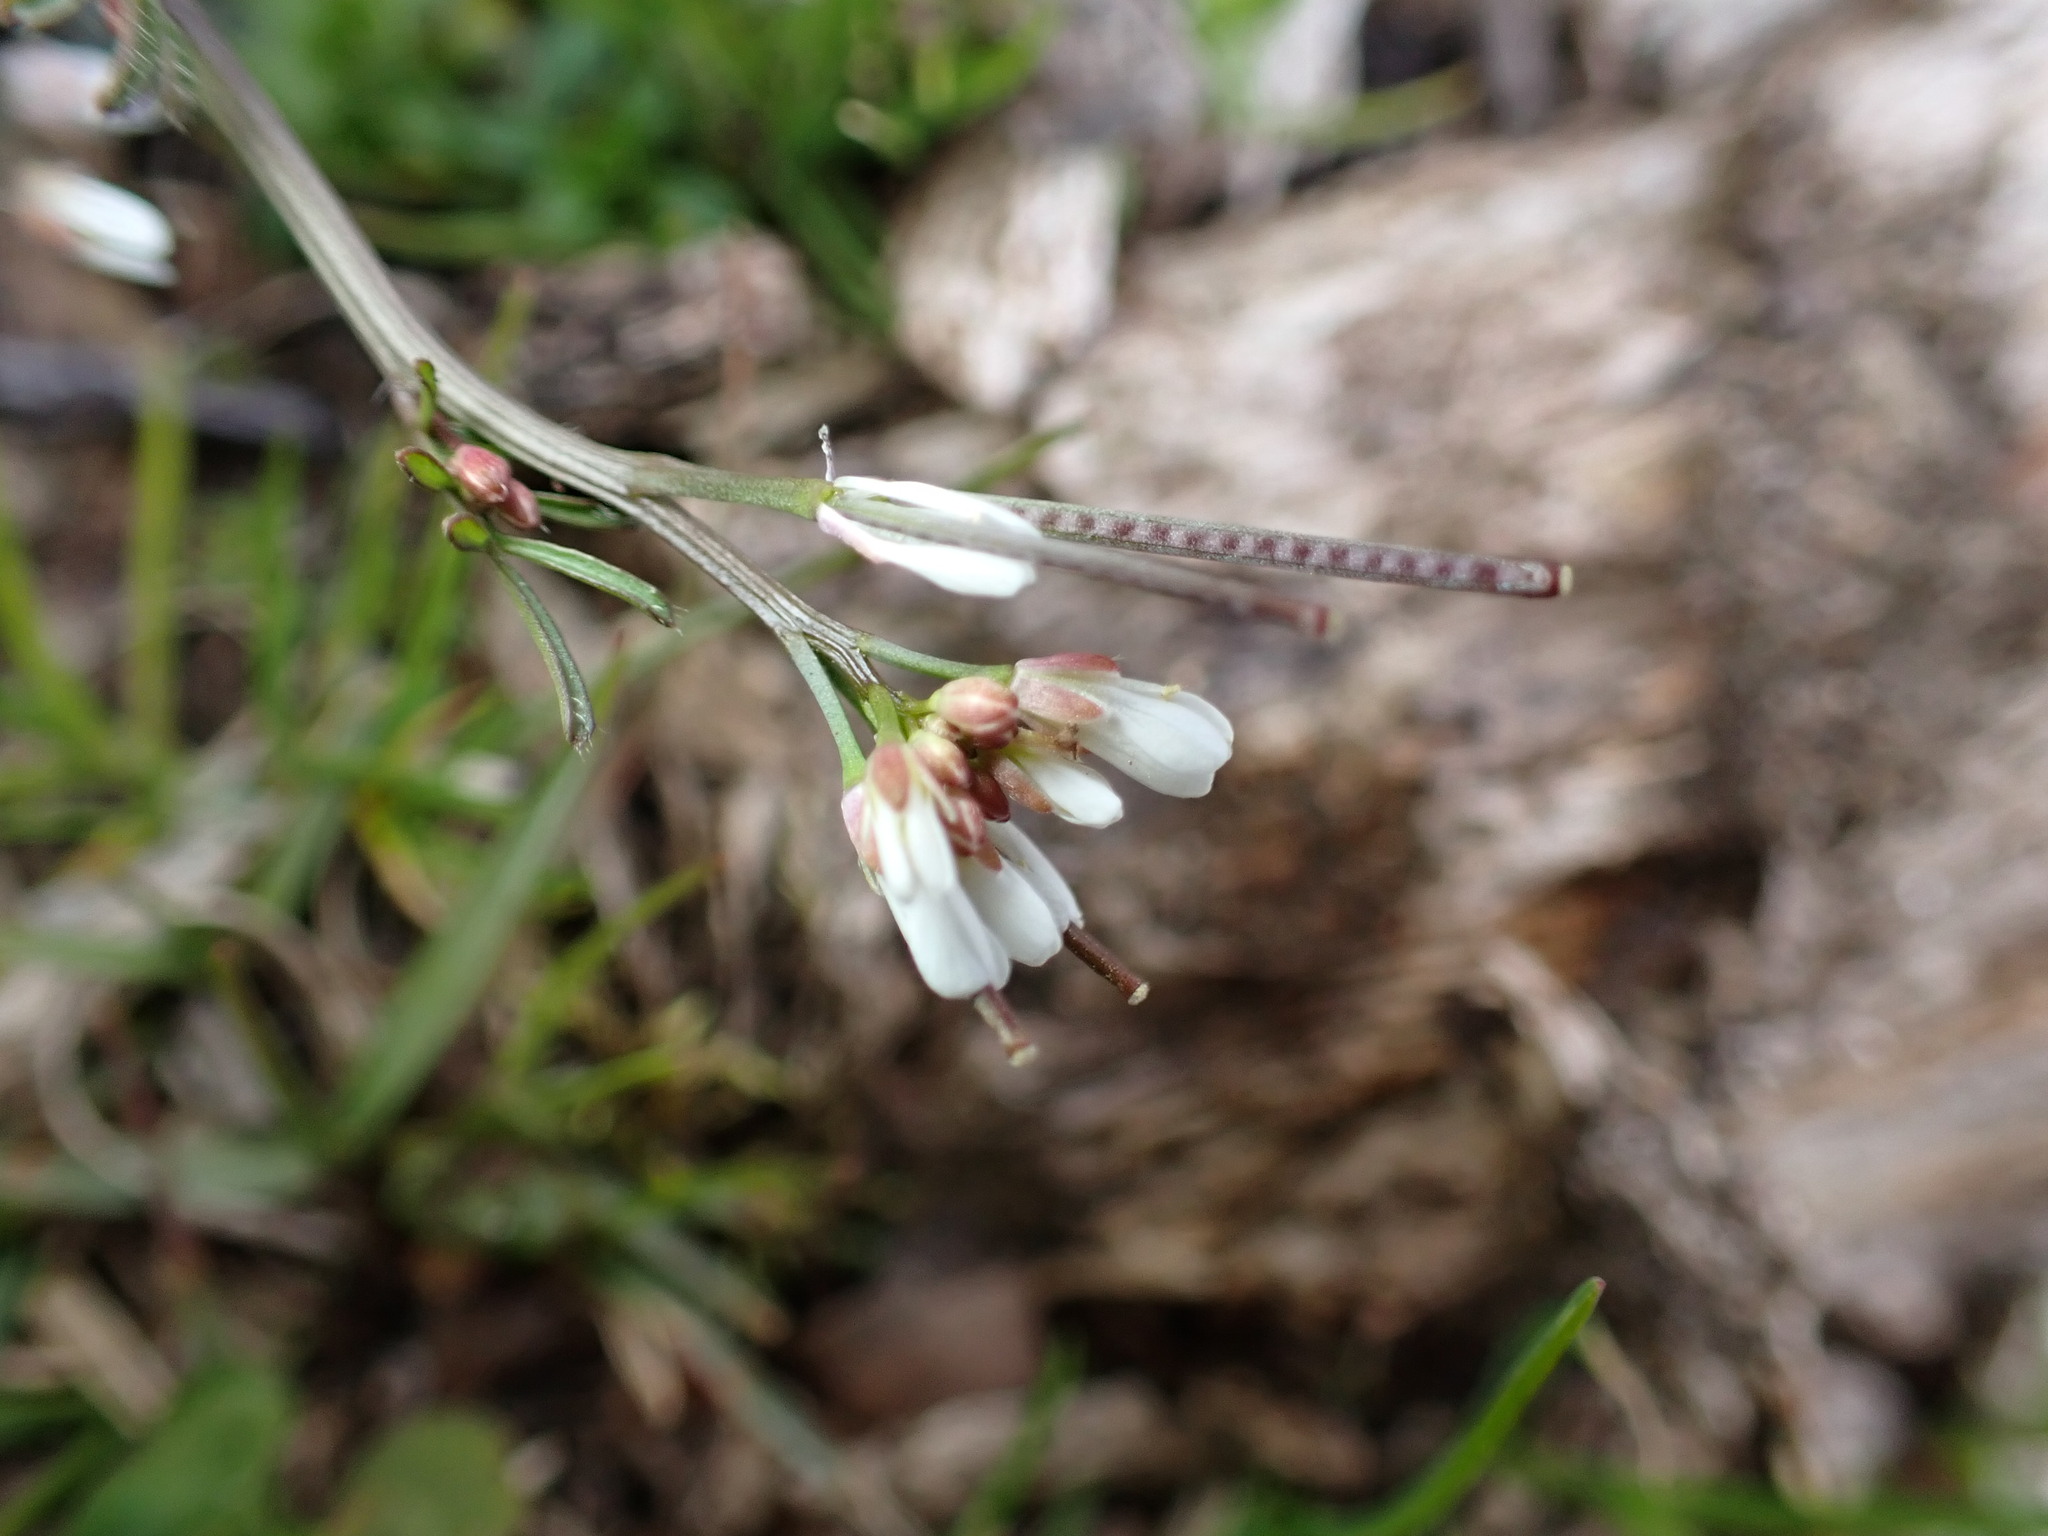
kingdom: Plantae
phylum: Tracheophyta
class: Magnoliopsida
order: Brassicales
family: Brassicaceae
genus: Cardamine
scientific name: Cardamine hirsuta
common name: Hairy bittercress
